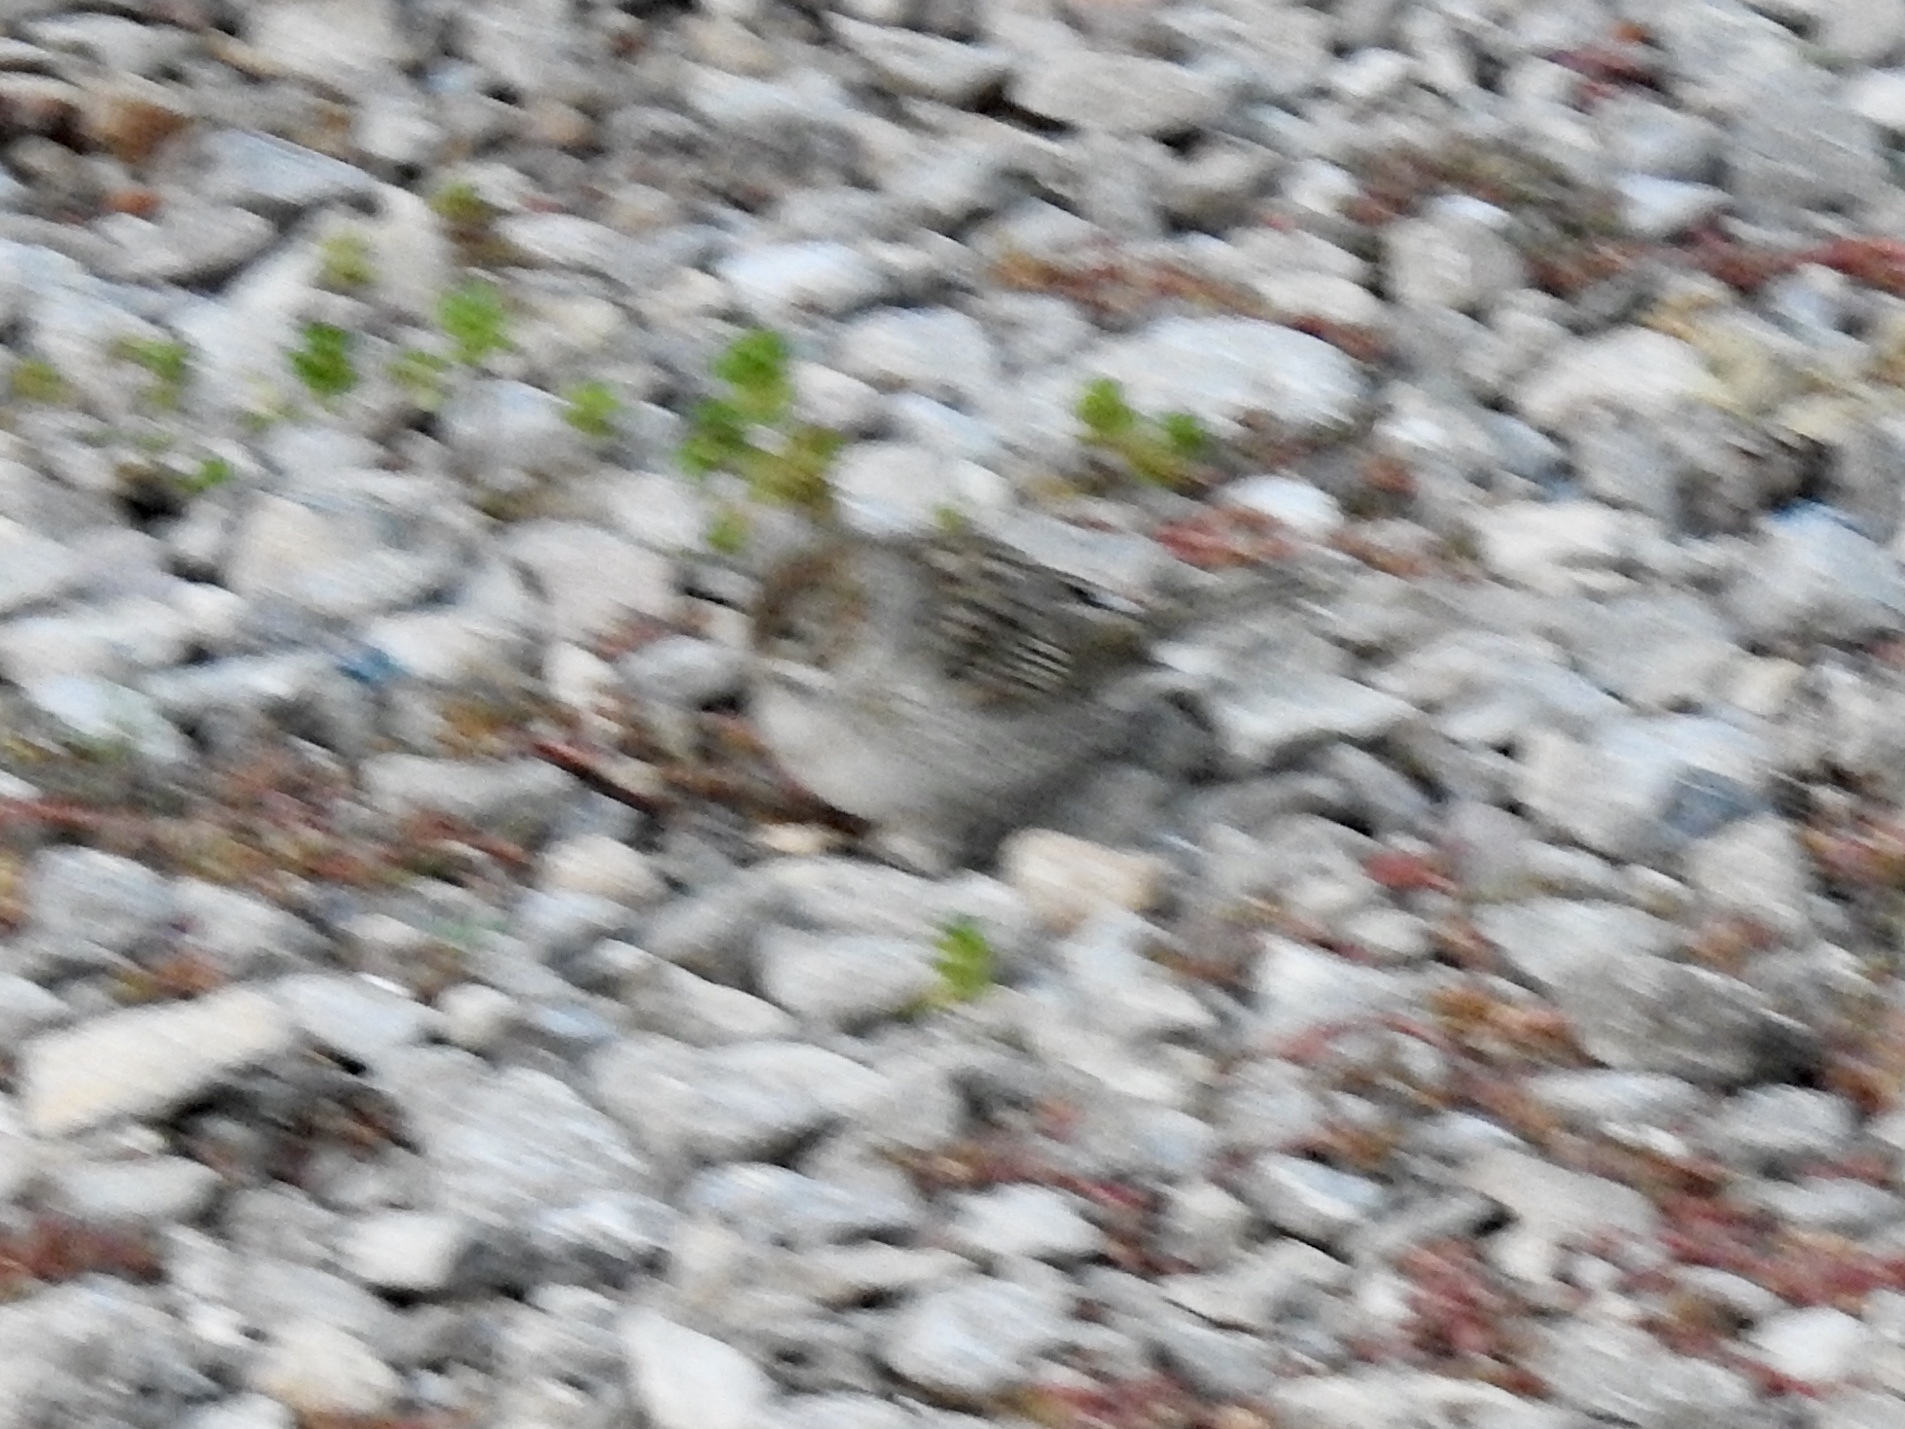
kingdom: Animalia
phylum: Chordata
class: Aves
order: Passeriformes
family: Passerellidae
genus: Spizella
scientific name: Spizella passerina
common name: Chipping sparrow
